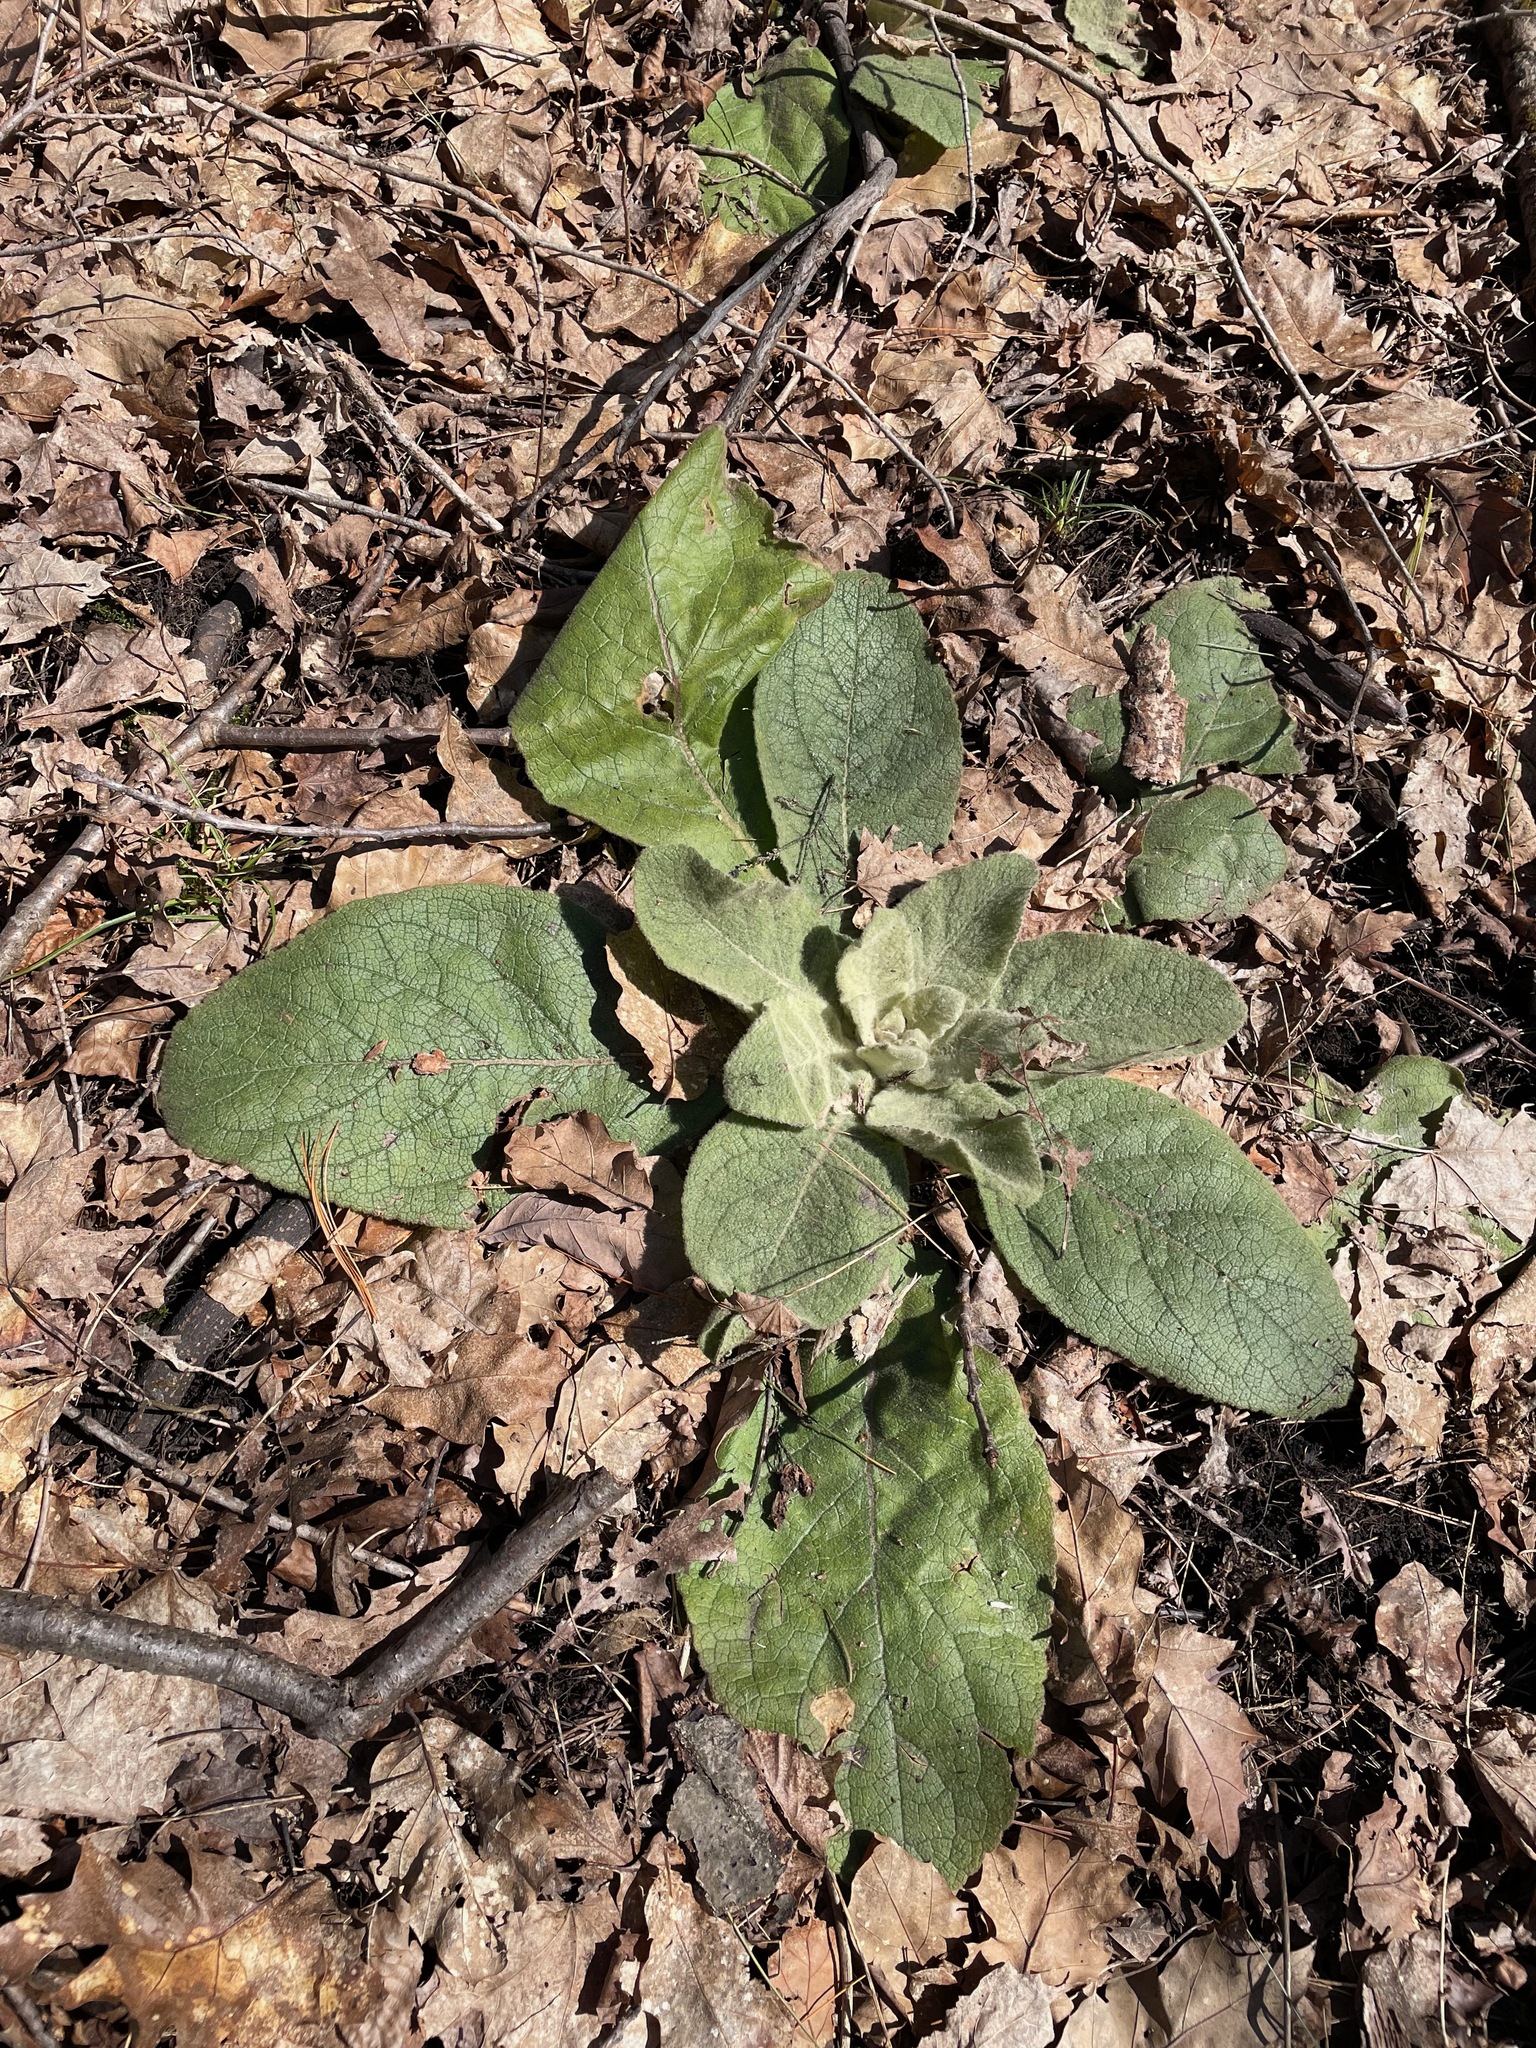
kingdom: Plantae
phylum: Tracheophyta
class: Magnoliopsida
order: Lamiales
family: Scrophulariaceae
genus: Verbascum
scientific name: Verbascum thapsus
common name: Common mullein
